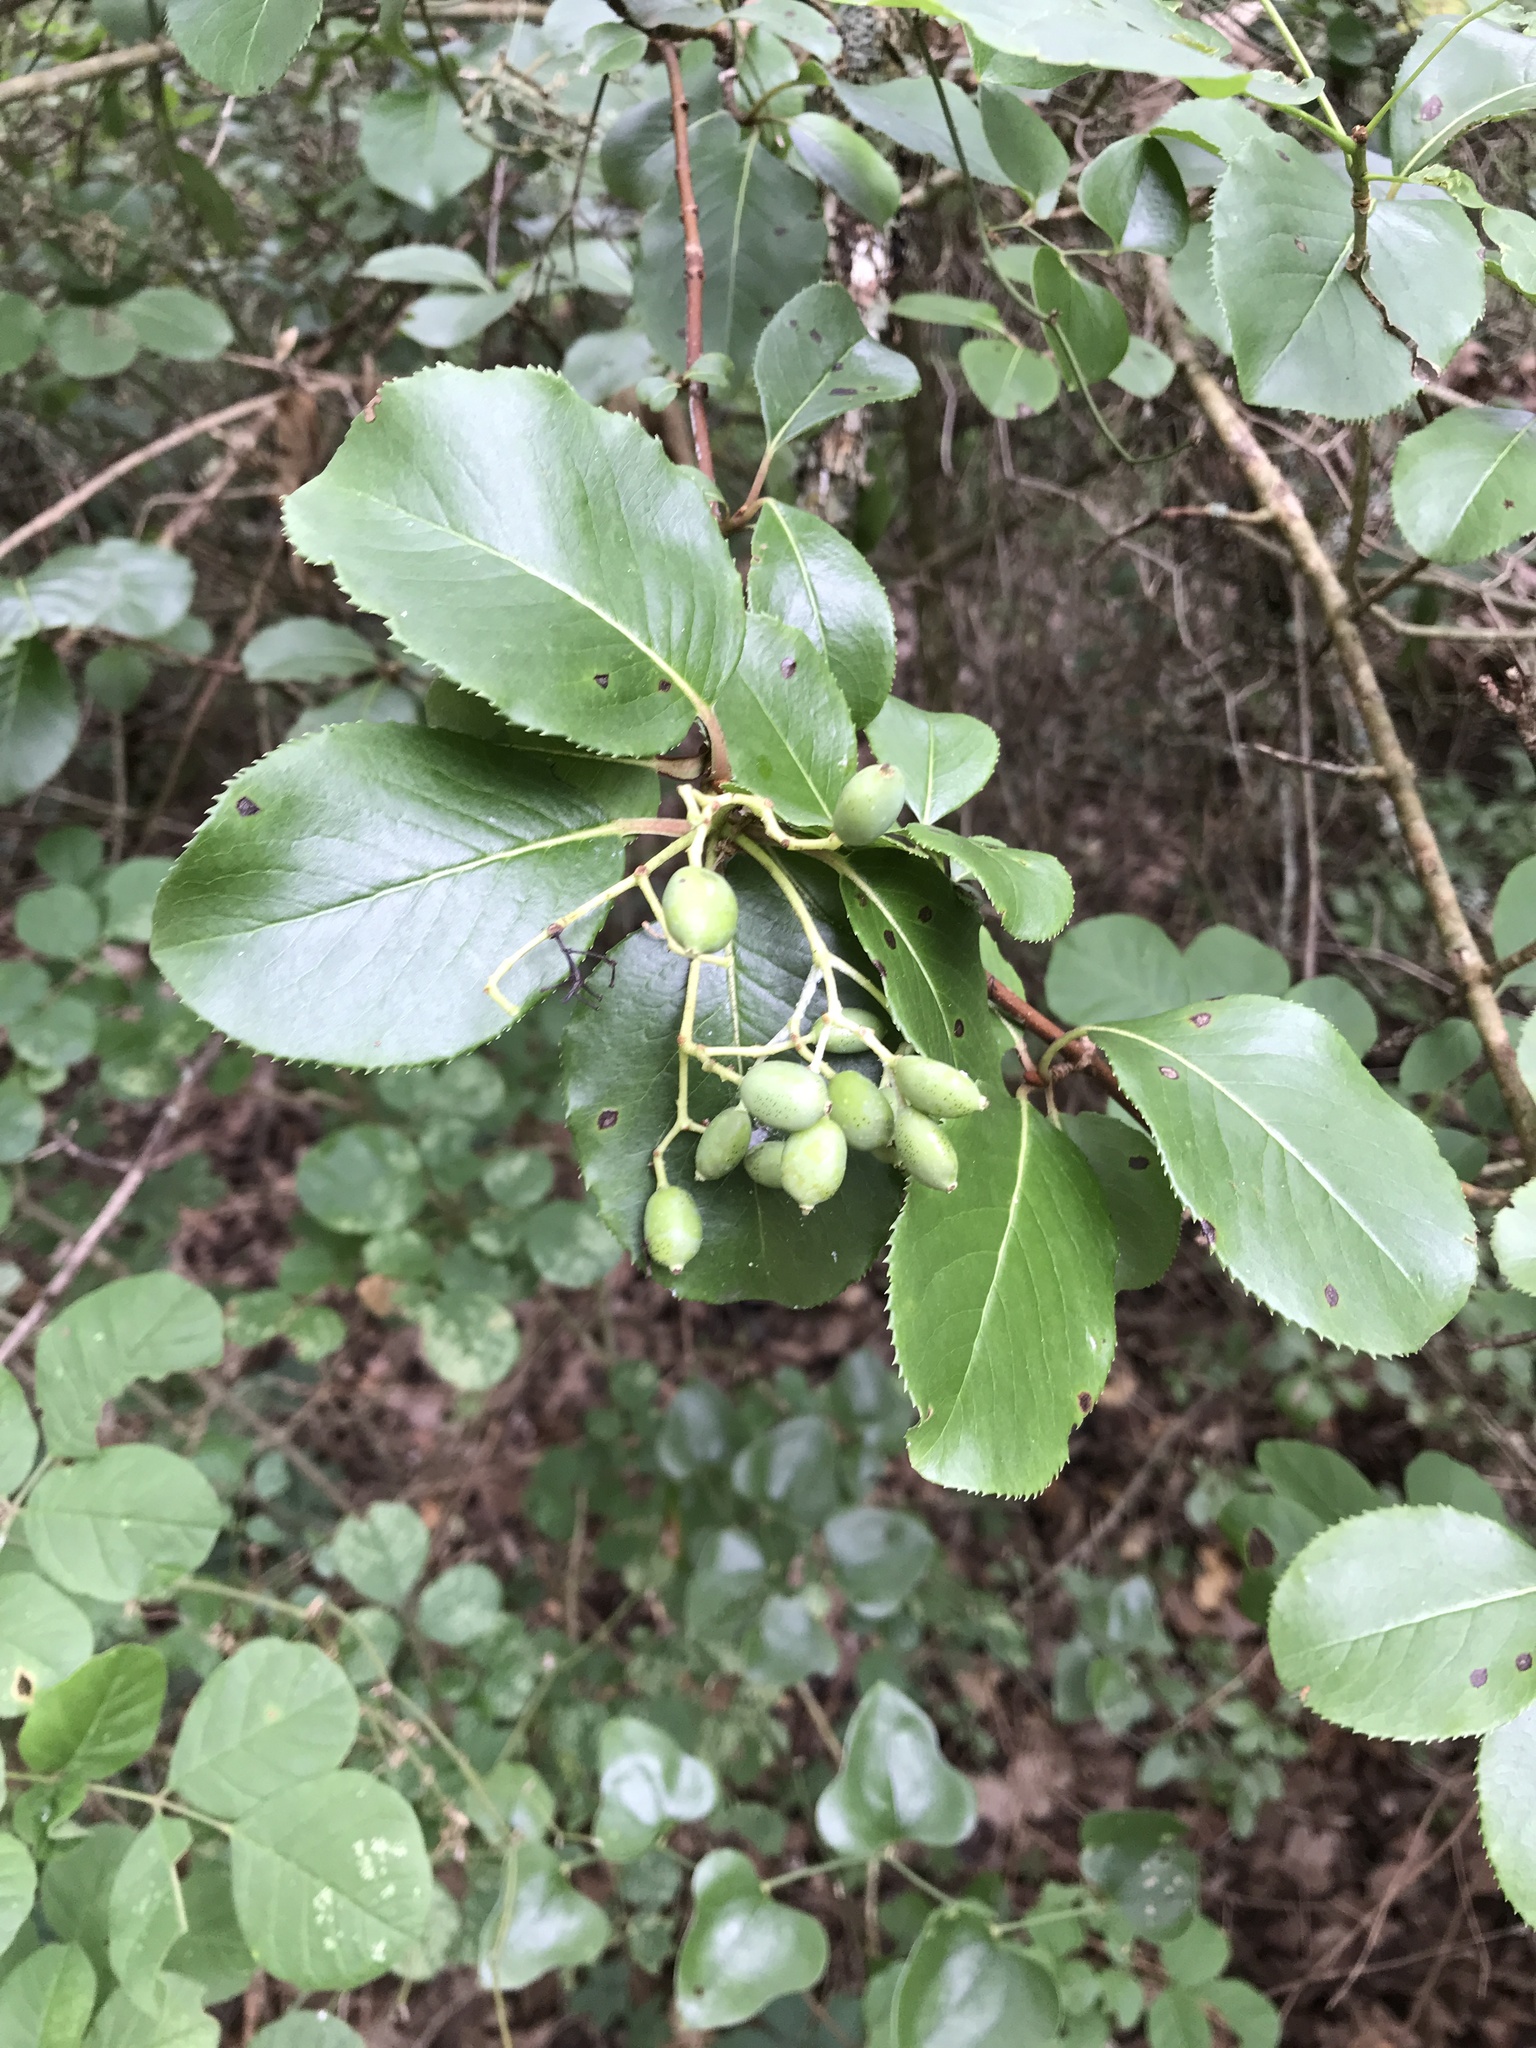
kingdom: Plantae
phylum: Tracheophyta
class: Magnoliopsida
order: Dipsacales
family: Viburnaceae
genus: Viburnum
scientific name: Viburnum rufidulum
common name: Blue haw
